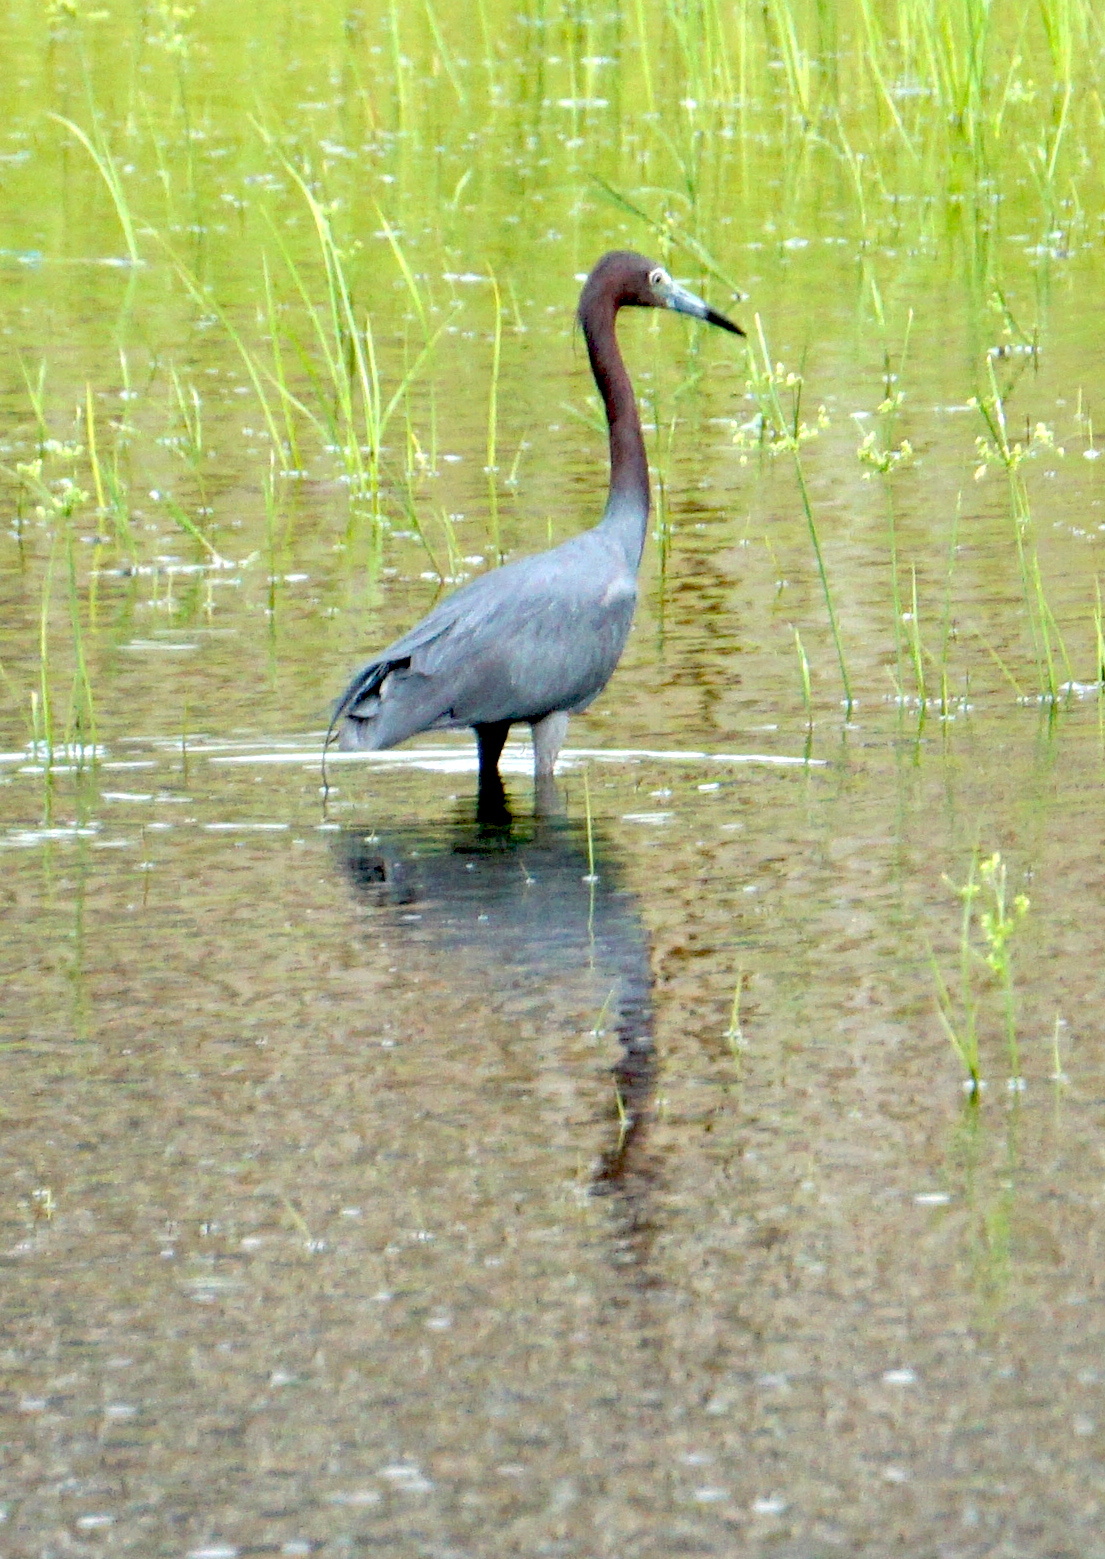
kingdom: Animalia
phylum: Chordata
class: Aves
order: Pelecaniformes
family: Ardeidae
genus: Egretta
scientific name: Egretta caerulea
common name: Little blue heron
